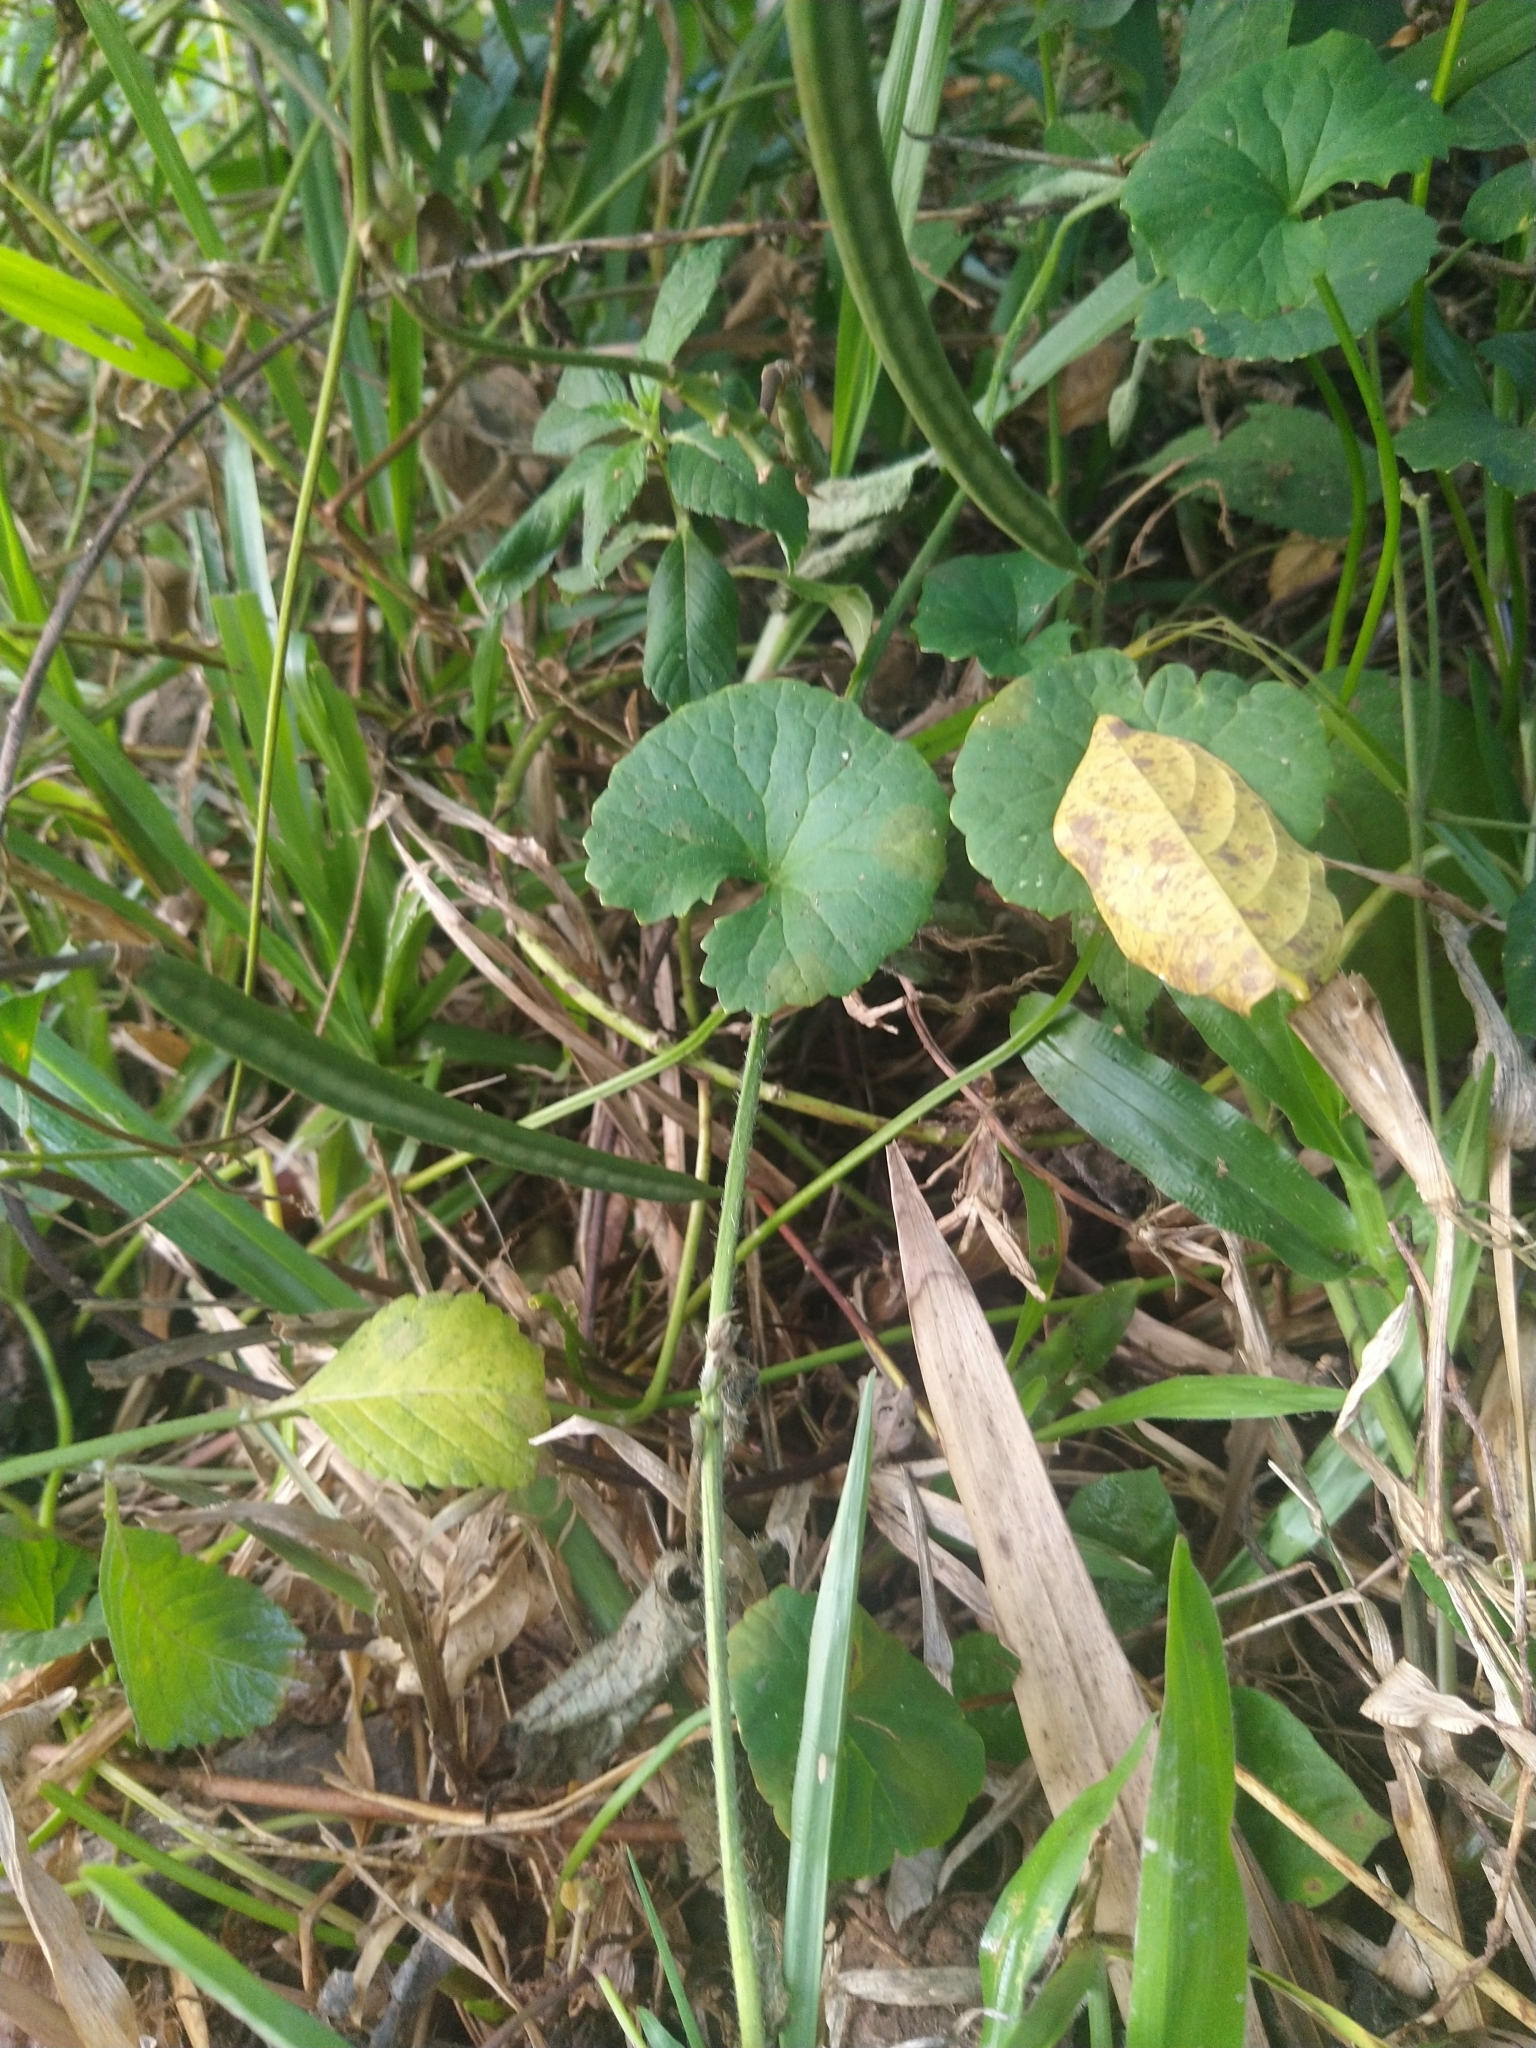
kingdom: Plantae
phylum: Tracheophyta
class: Magnoliopsida
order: Apiales
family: Apiaceae
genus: Centella
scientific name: Centella asiatica
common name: Spadeleaf
